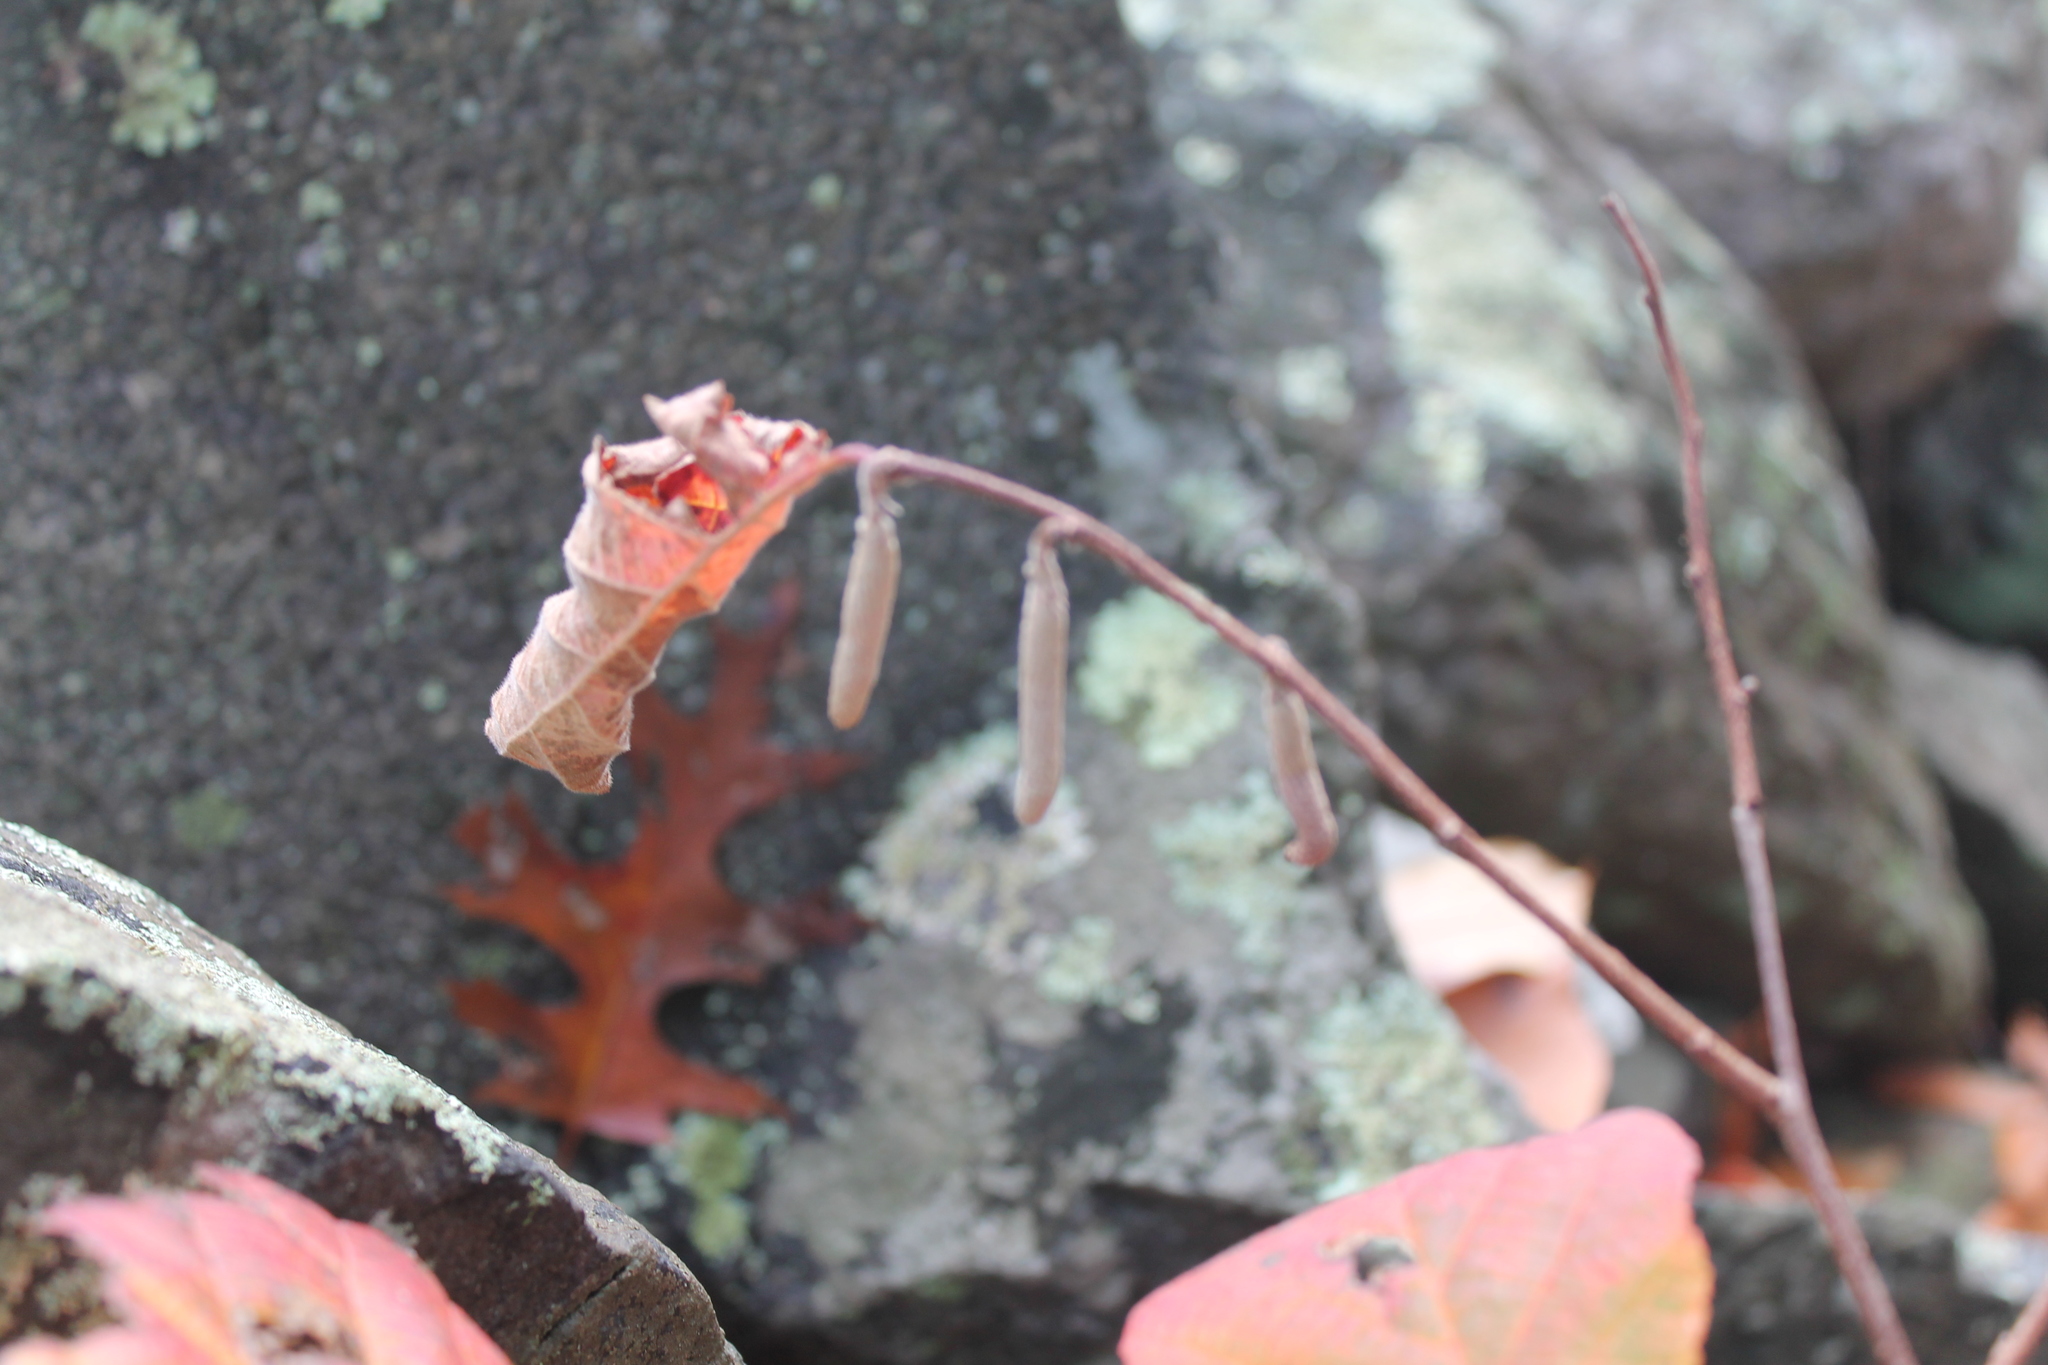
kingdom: Plantae
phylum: Tracheophyta
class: Magnoliopsida
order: Fagales
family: Betulaceae
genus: Corylus
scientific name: Corylus americana
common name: American hazel
